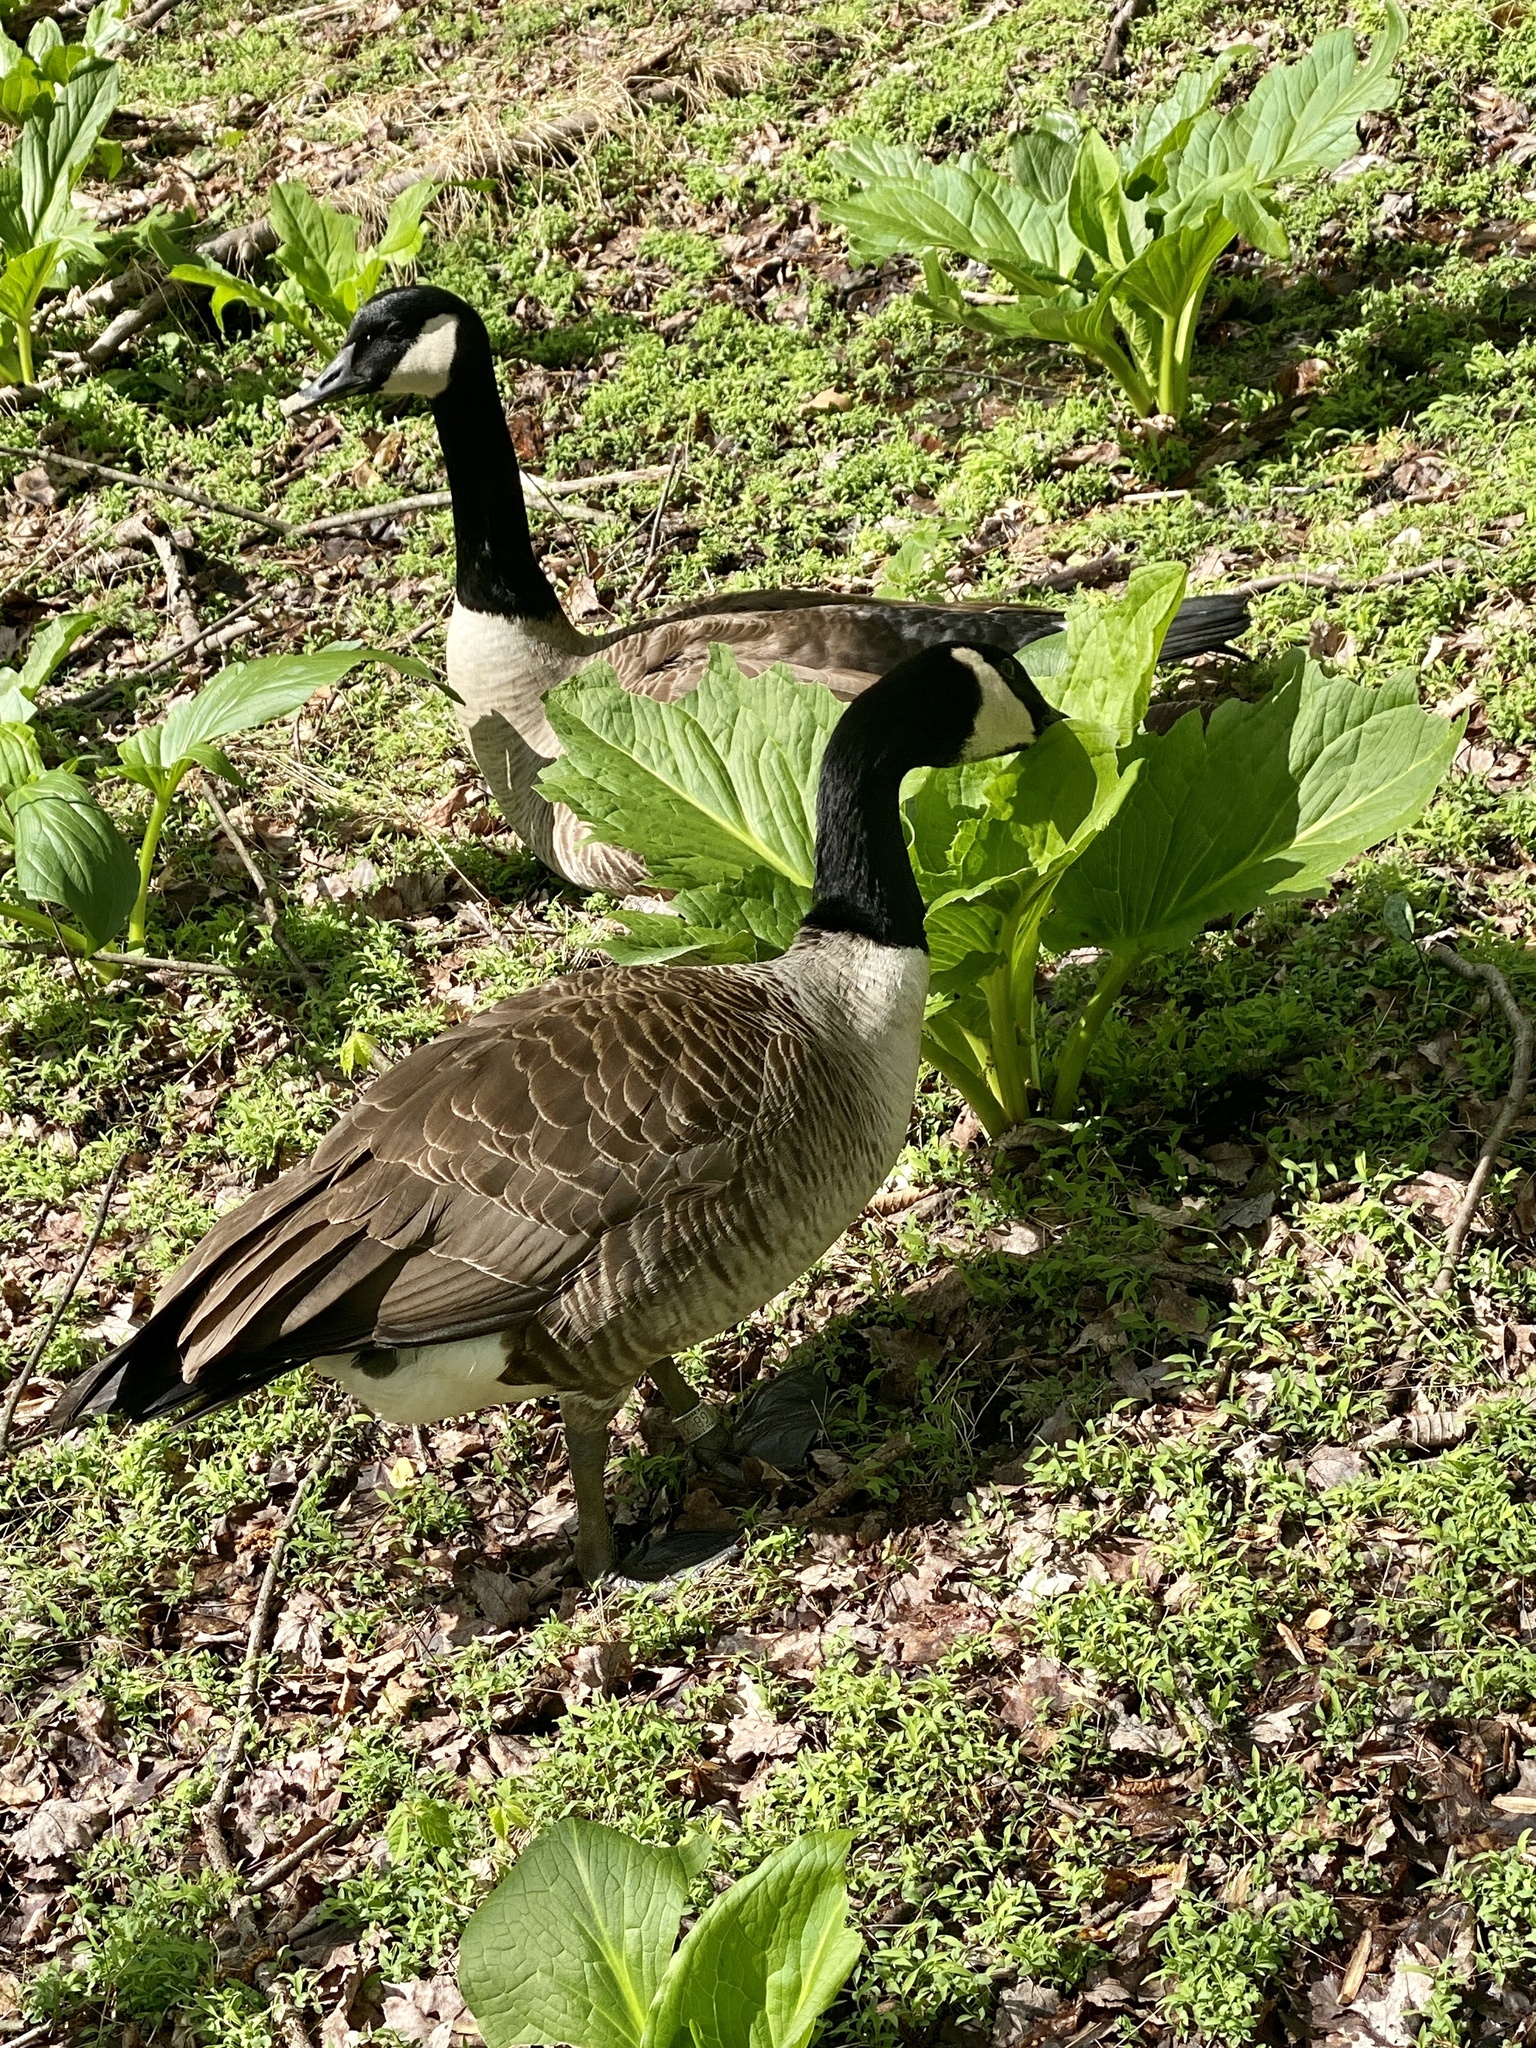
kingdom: Animalia
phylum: Chordata
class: Aves
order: Anseriformes
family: Anatidae
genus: Branta
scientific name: Branta canadensis
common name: Canada goose
